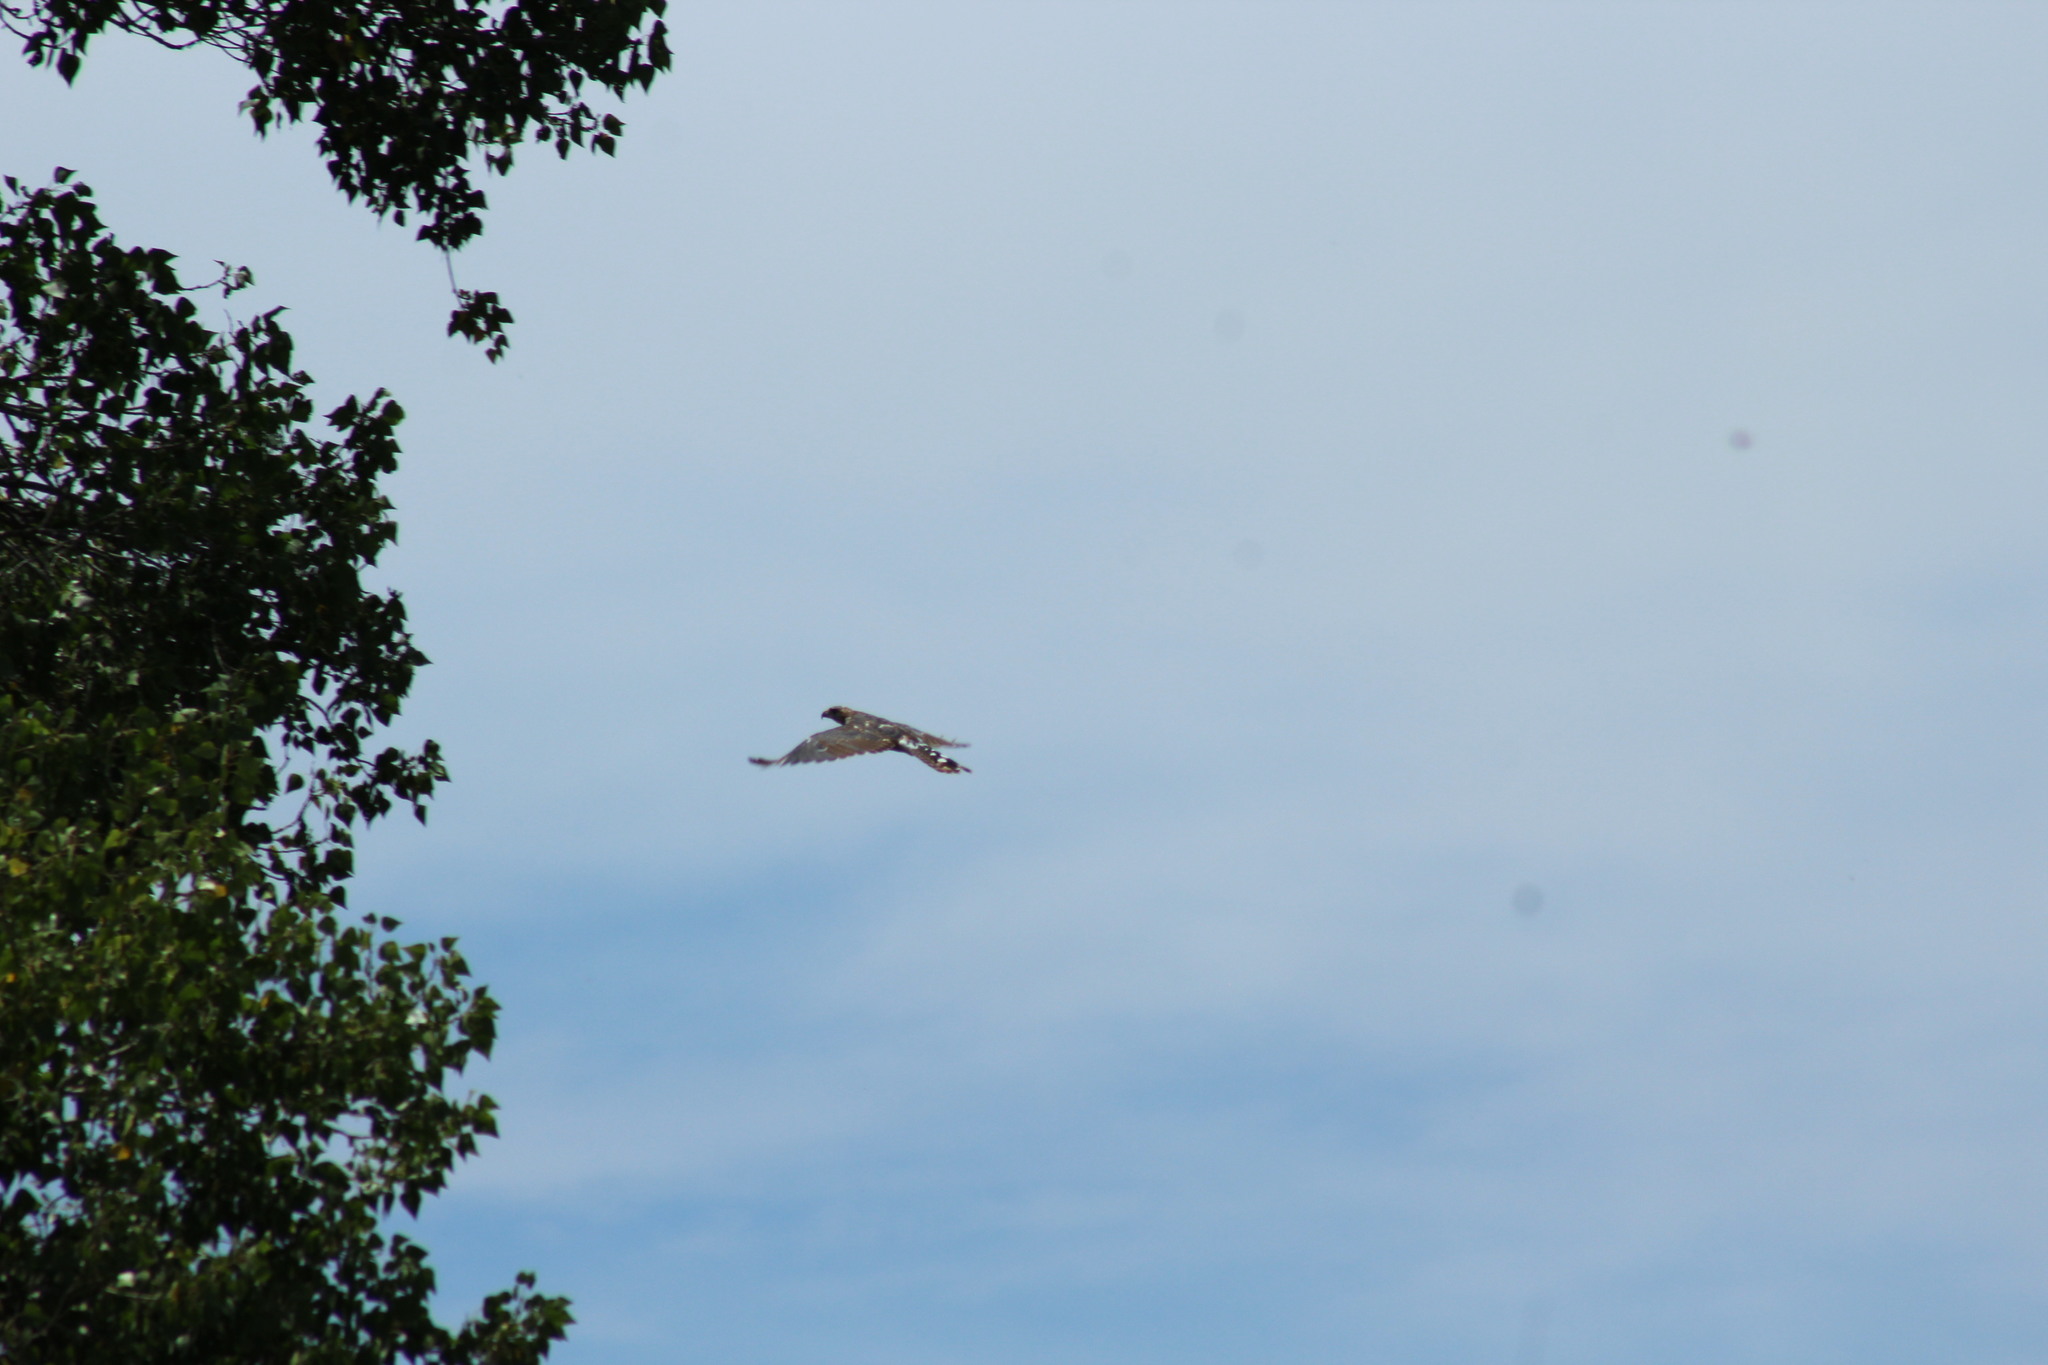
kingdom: Animalia
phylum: Chordata
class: Aves
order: Accipitriformes
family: Accipitridae
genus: Buteo
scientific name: Buteo nitidus
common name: Grey-lined hawk
